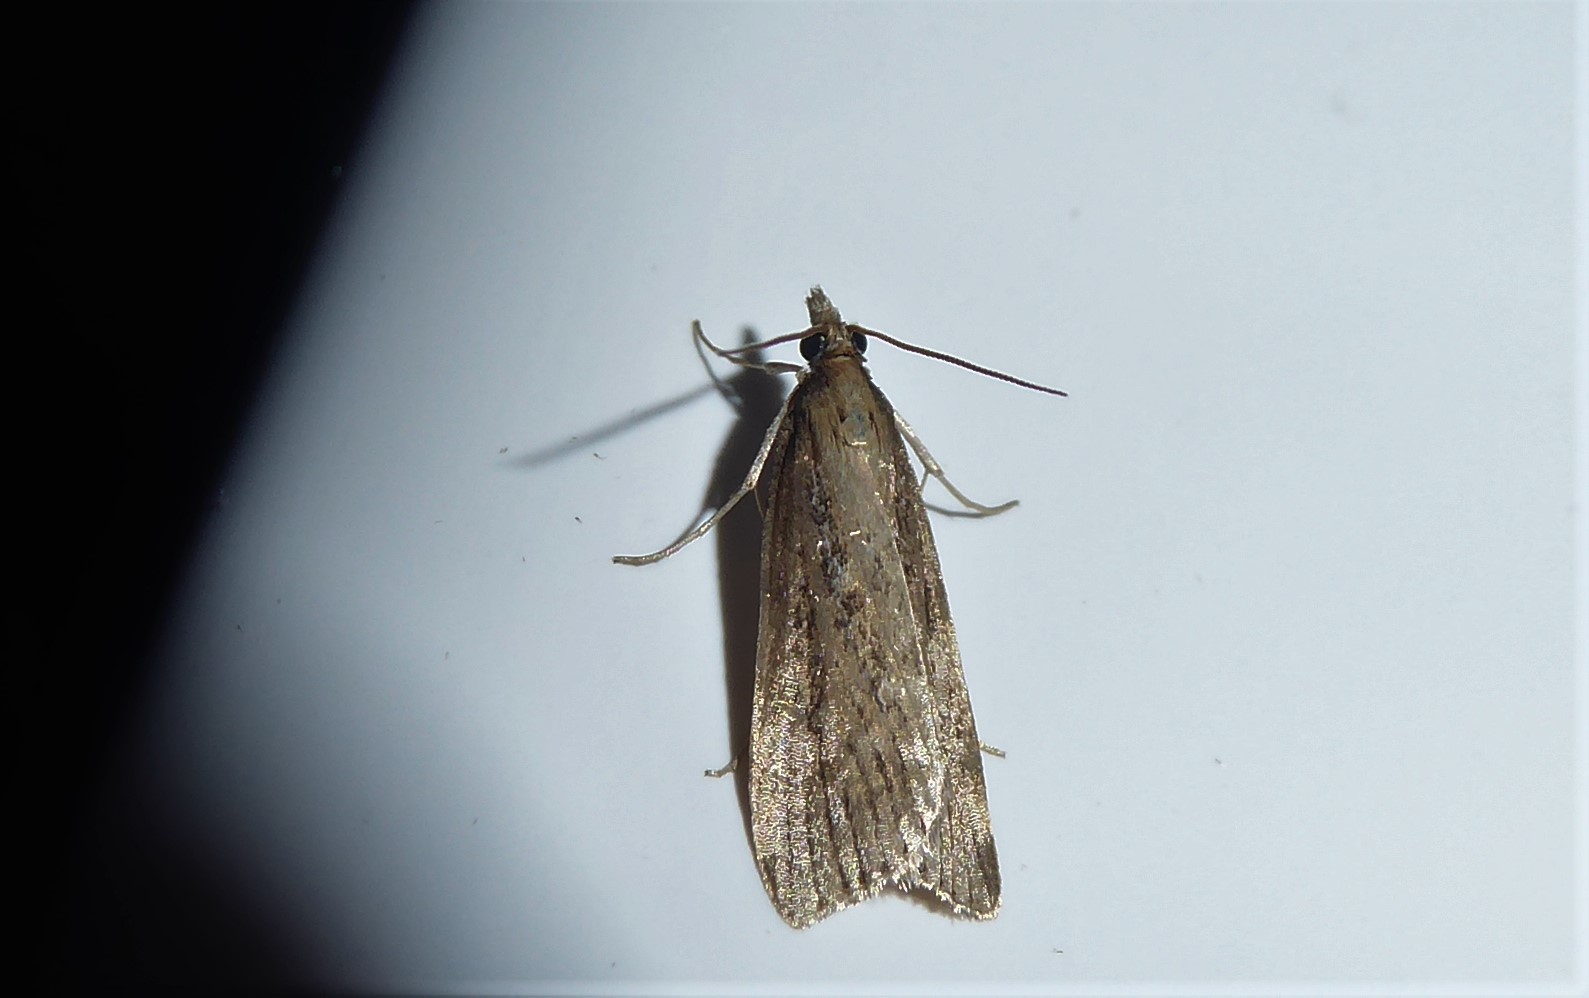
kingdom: Animalia
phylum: Arthropoda
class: Insecta
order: Lepidoptera
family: Crambidae
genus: Eudonia
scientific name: Eudonia octophora
